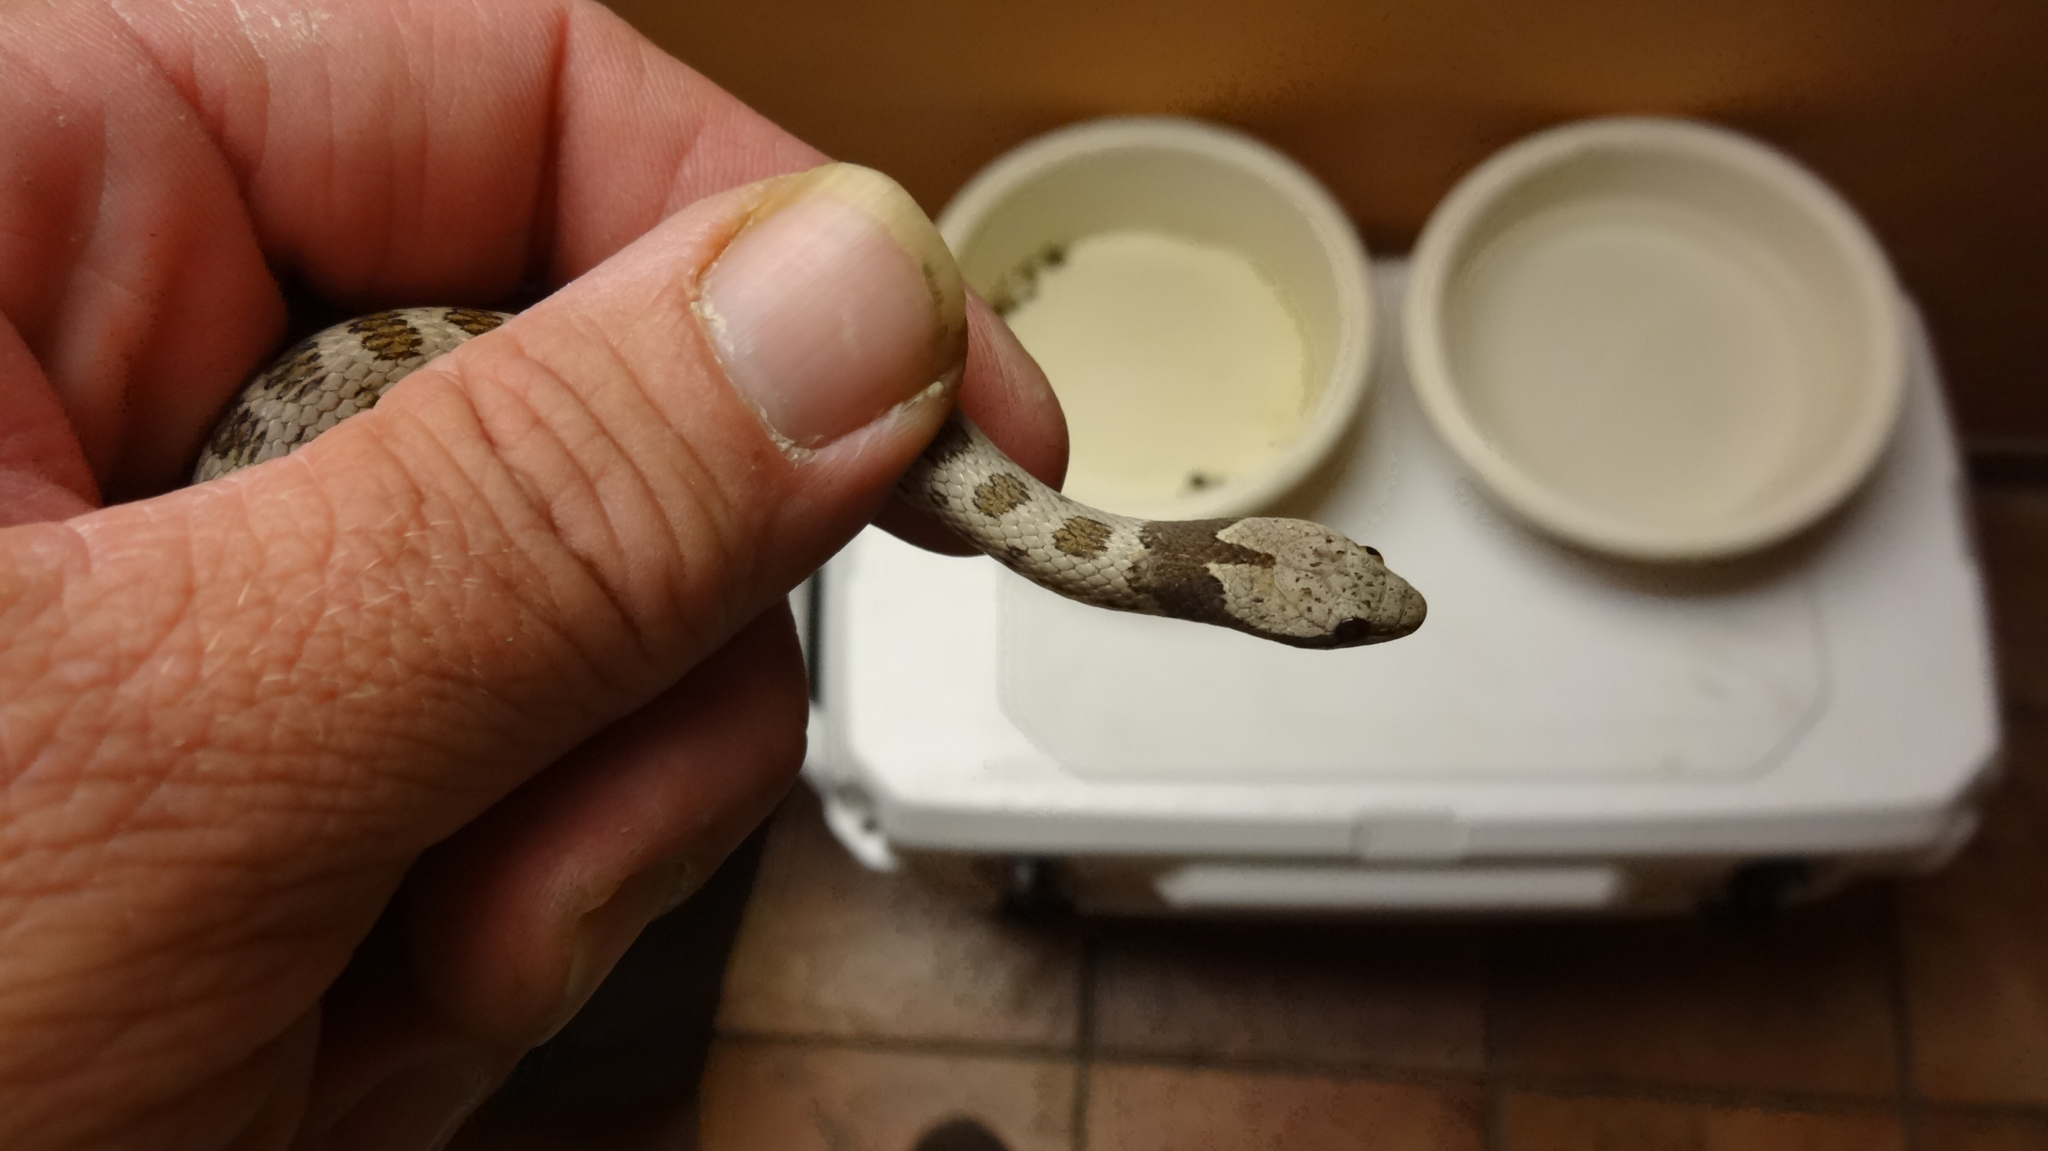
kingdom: Animalia
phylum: Chordata
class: Squamata
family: Colubridae
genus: Hypsiglena
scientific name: Hypsiglena chlorophaea
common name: Desert nightsnake
